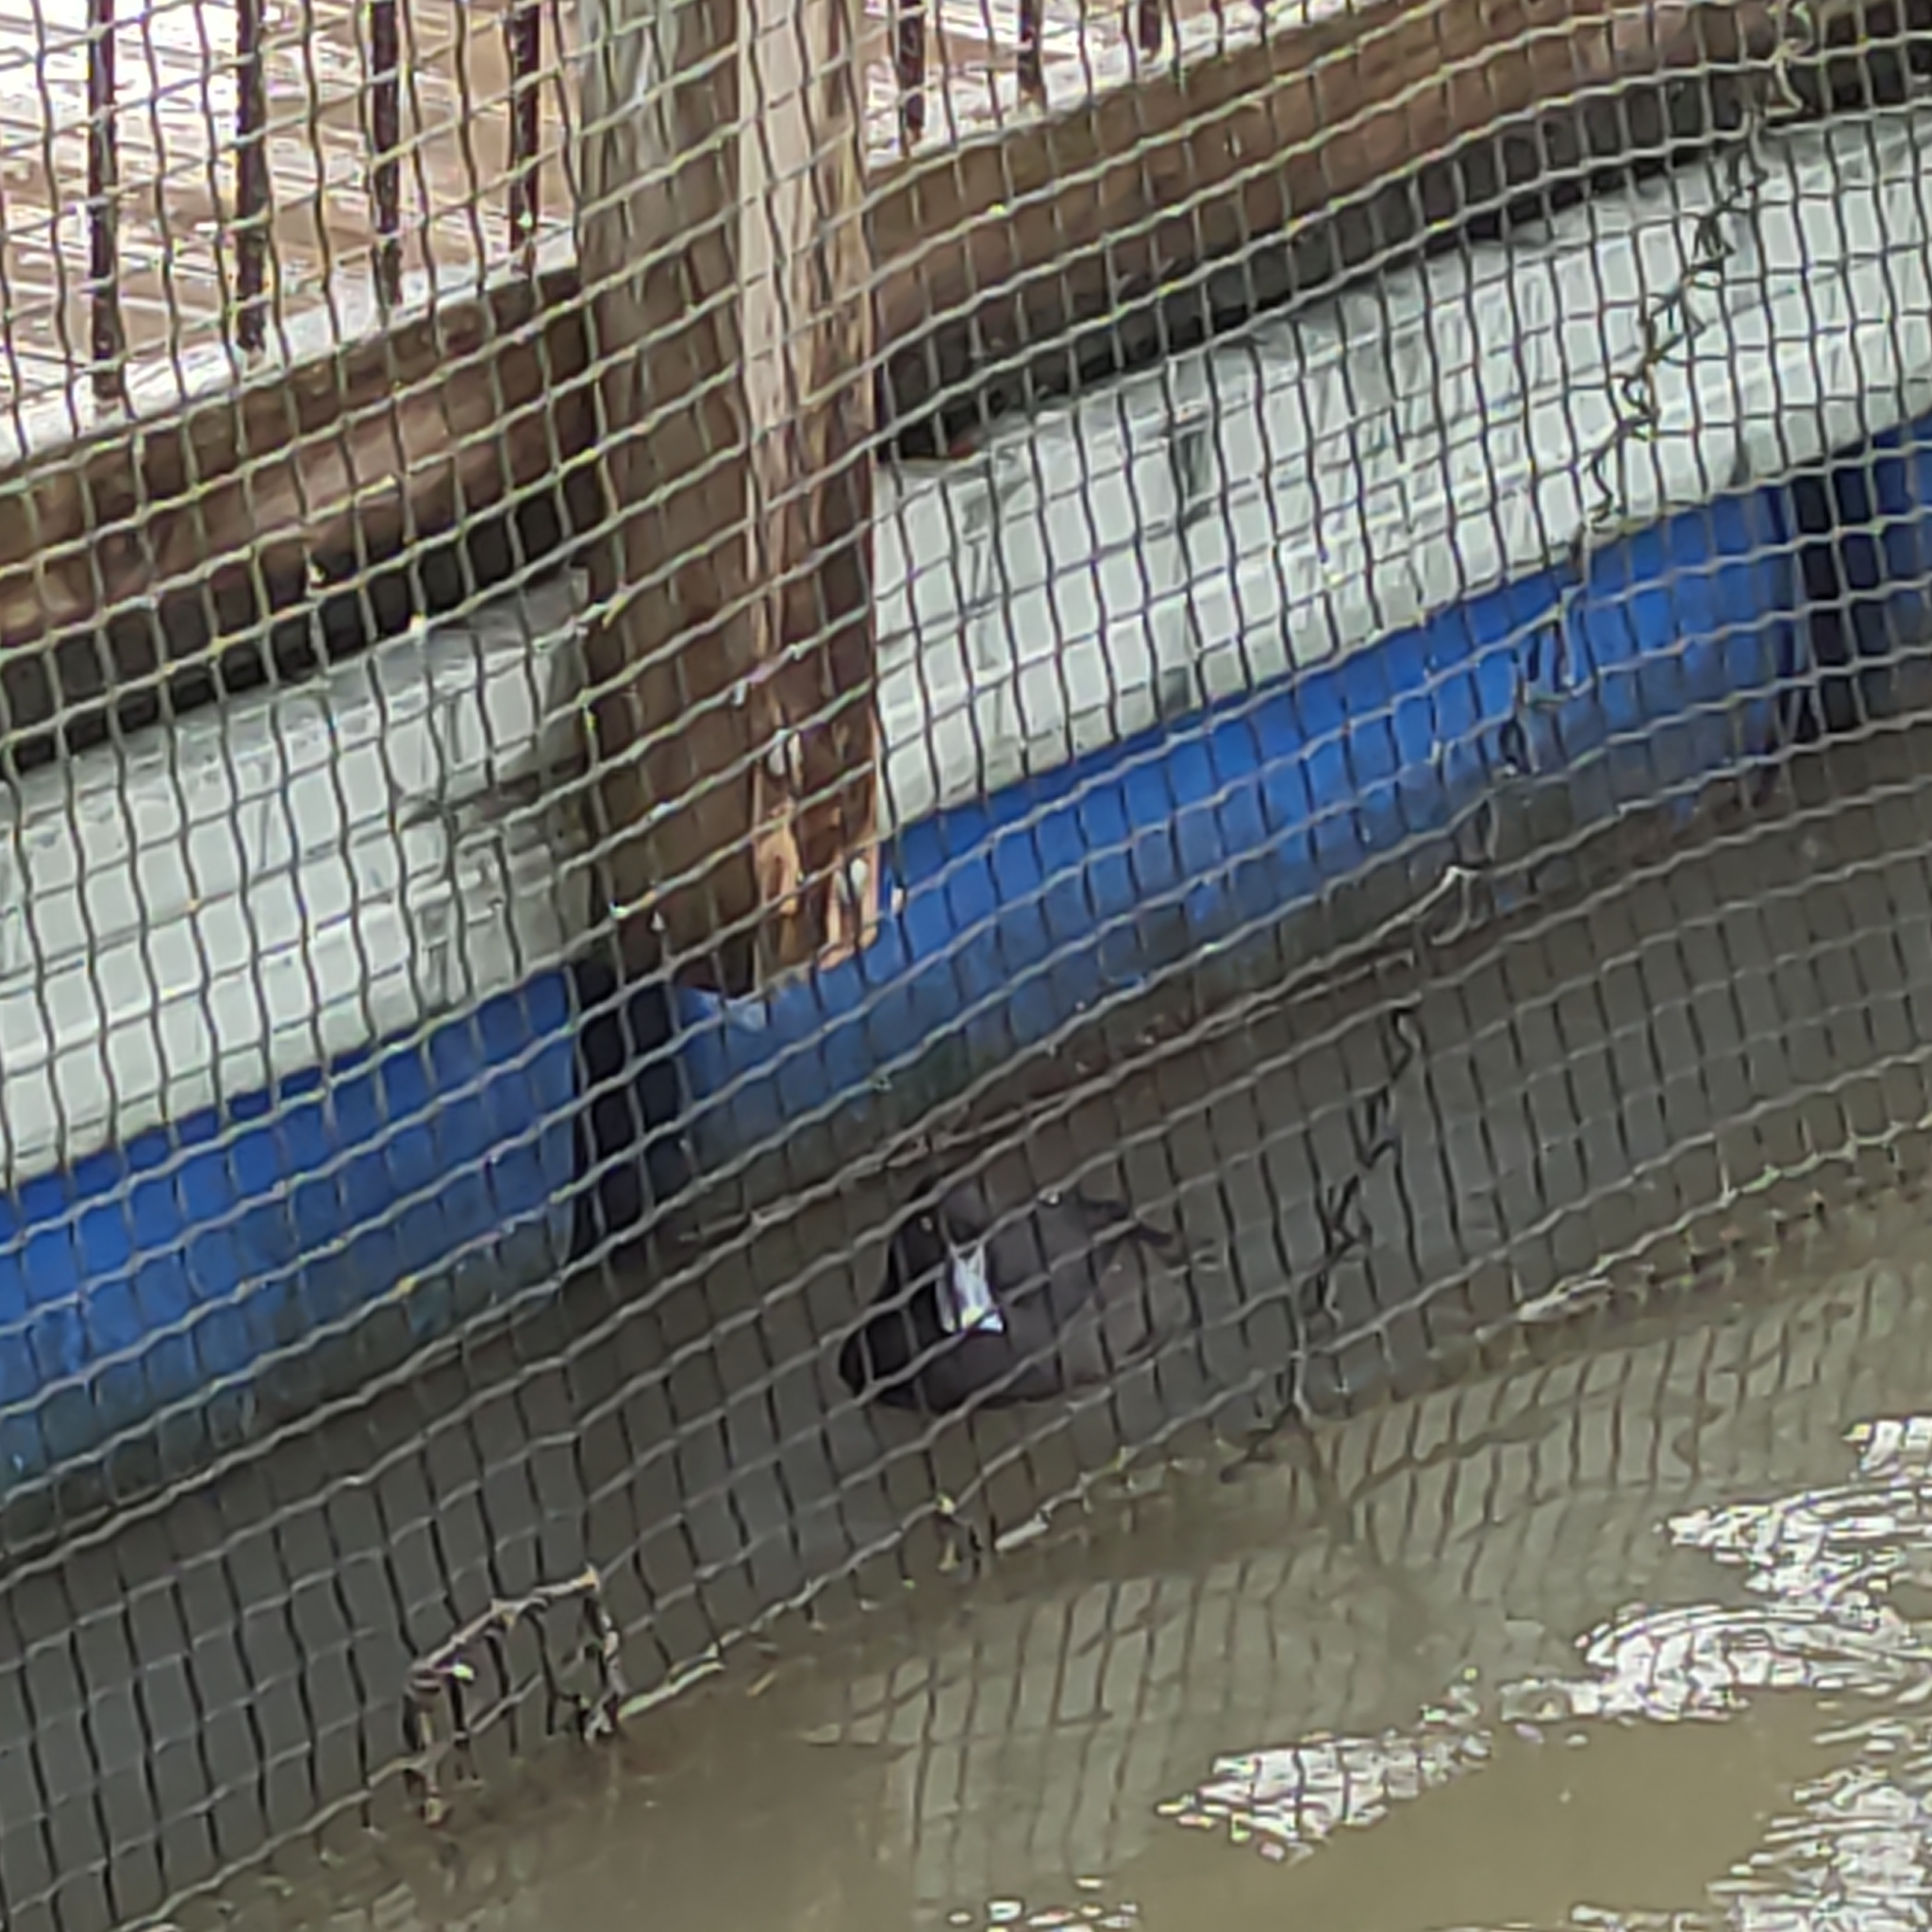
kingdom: Animalia
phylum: Chordata
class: Aves
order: Anseriformes
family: Anatidae
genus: Aythya
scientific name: Aythya novaeseelandiae
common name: New zealand scaup
